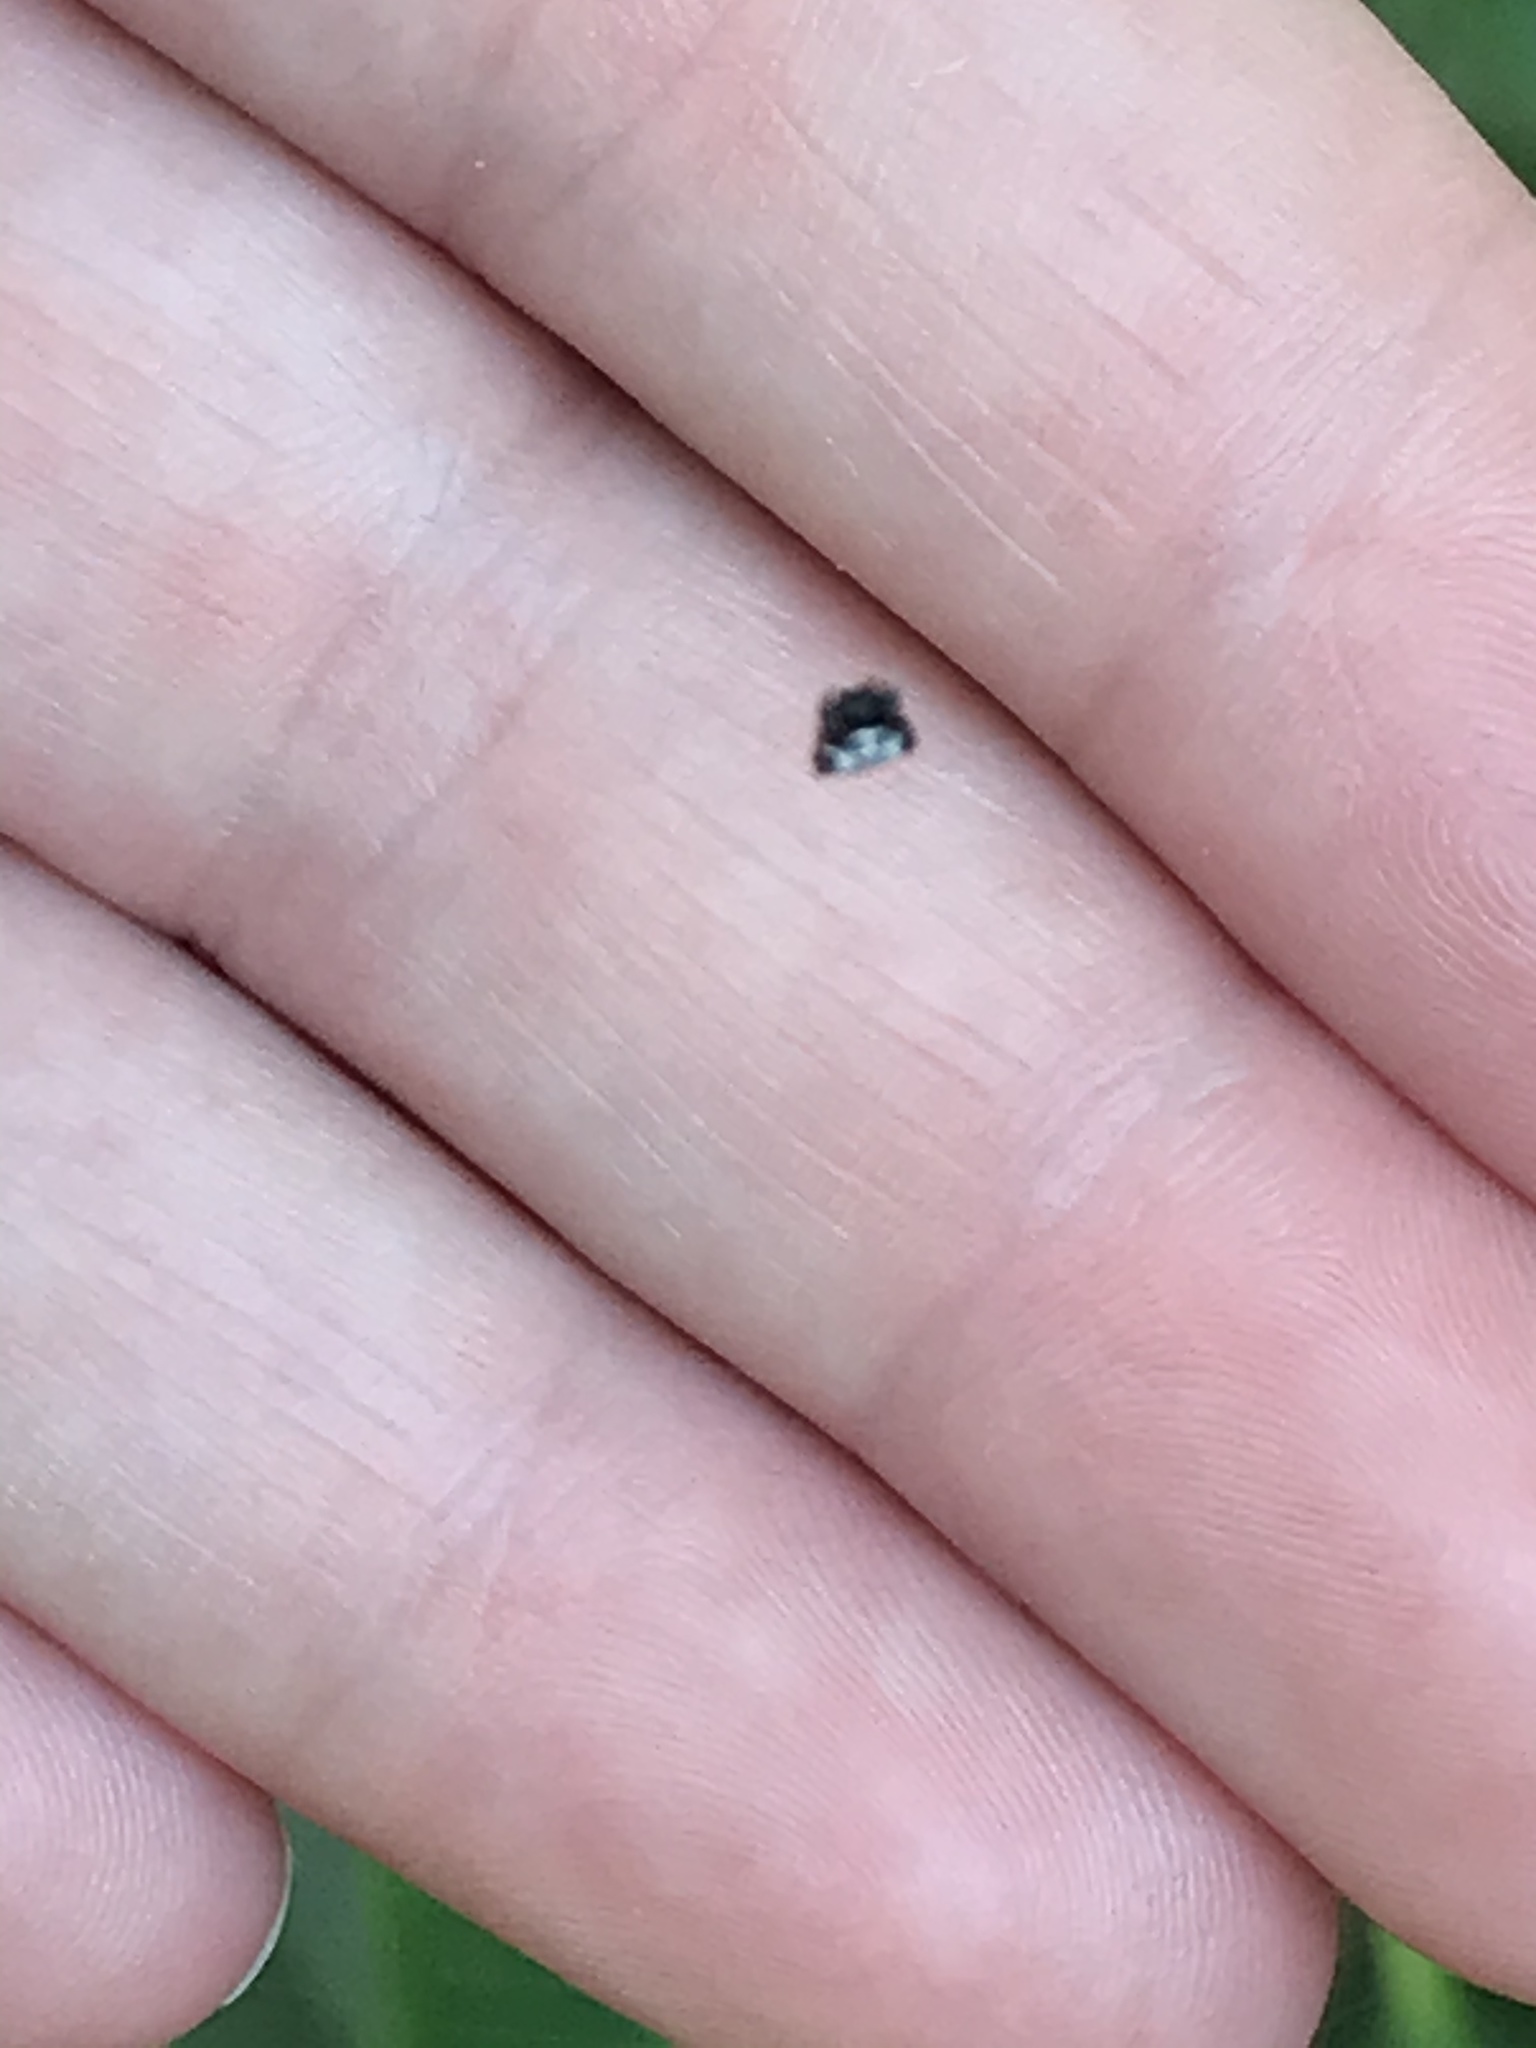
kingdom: Animalia
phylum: Arthropoda
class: Arachnida
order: Araneae
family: Araneidae
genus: Gasteracantha
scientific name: Gasteracantha cancriformis
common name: Orb weavers
